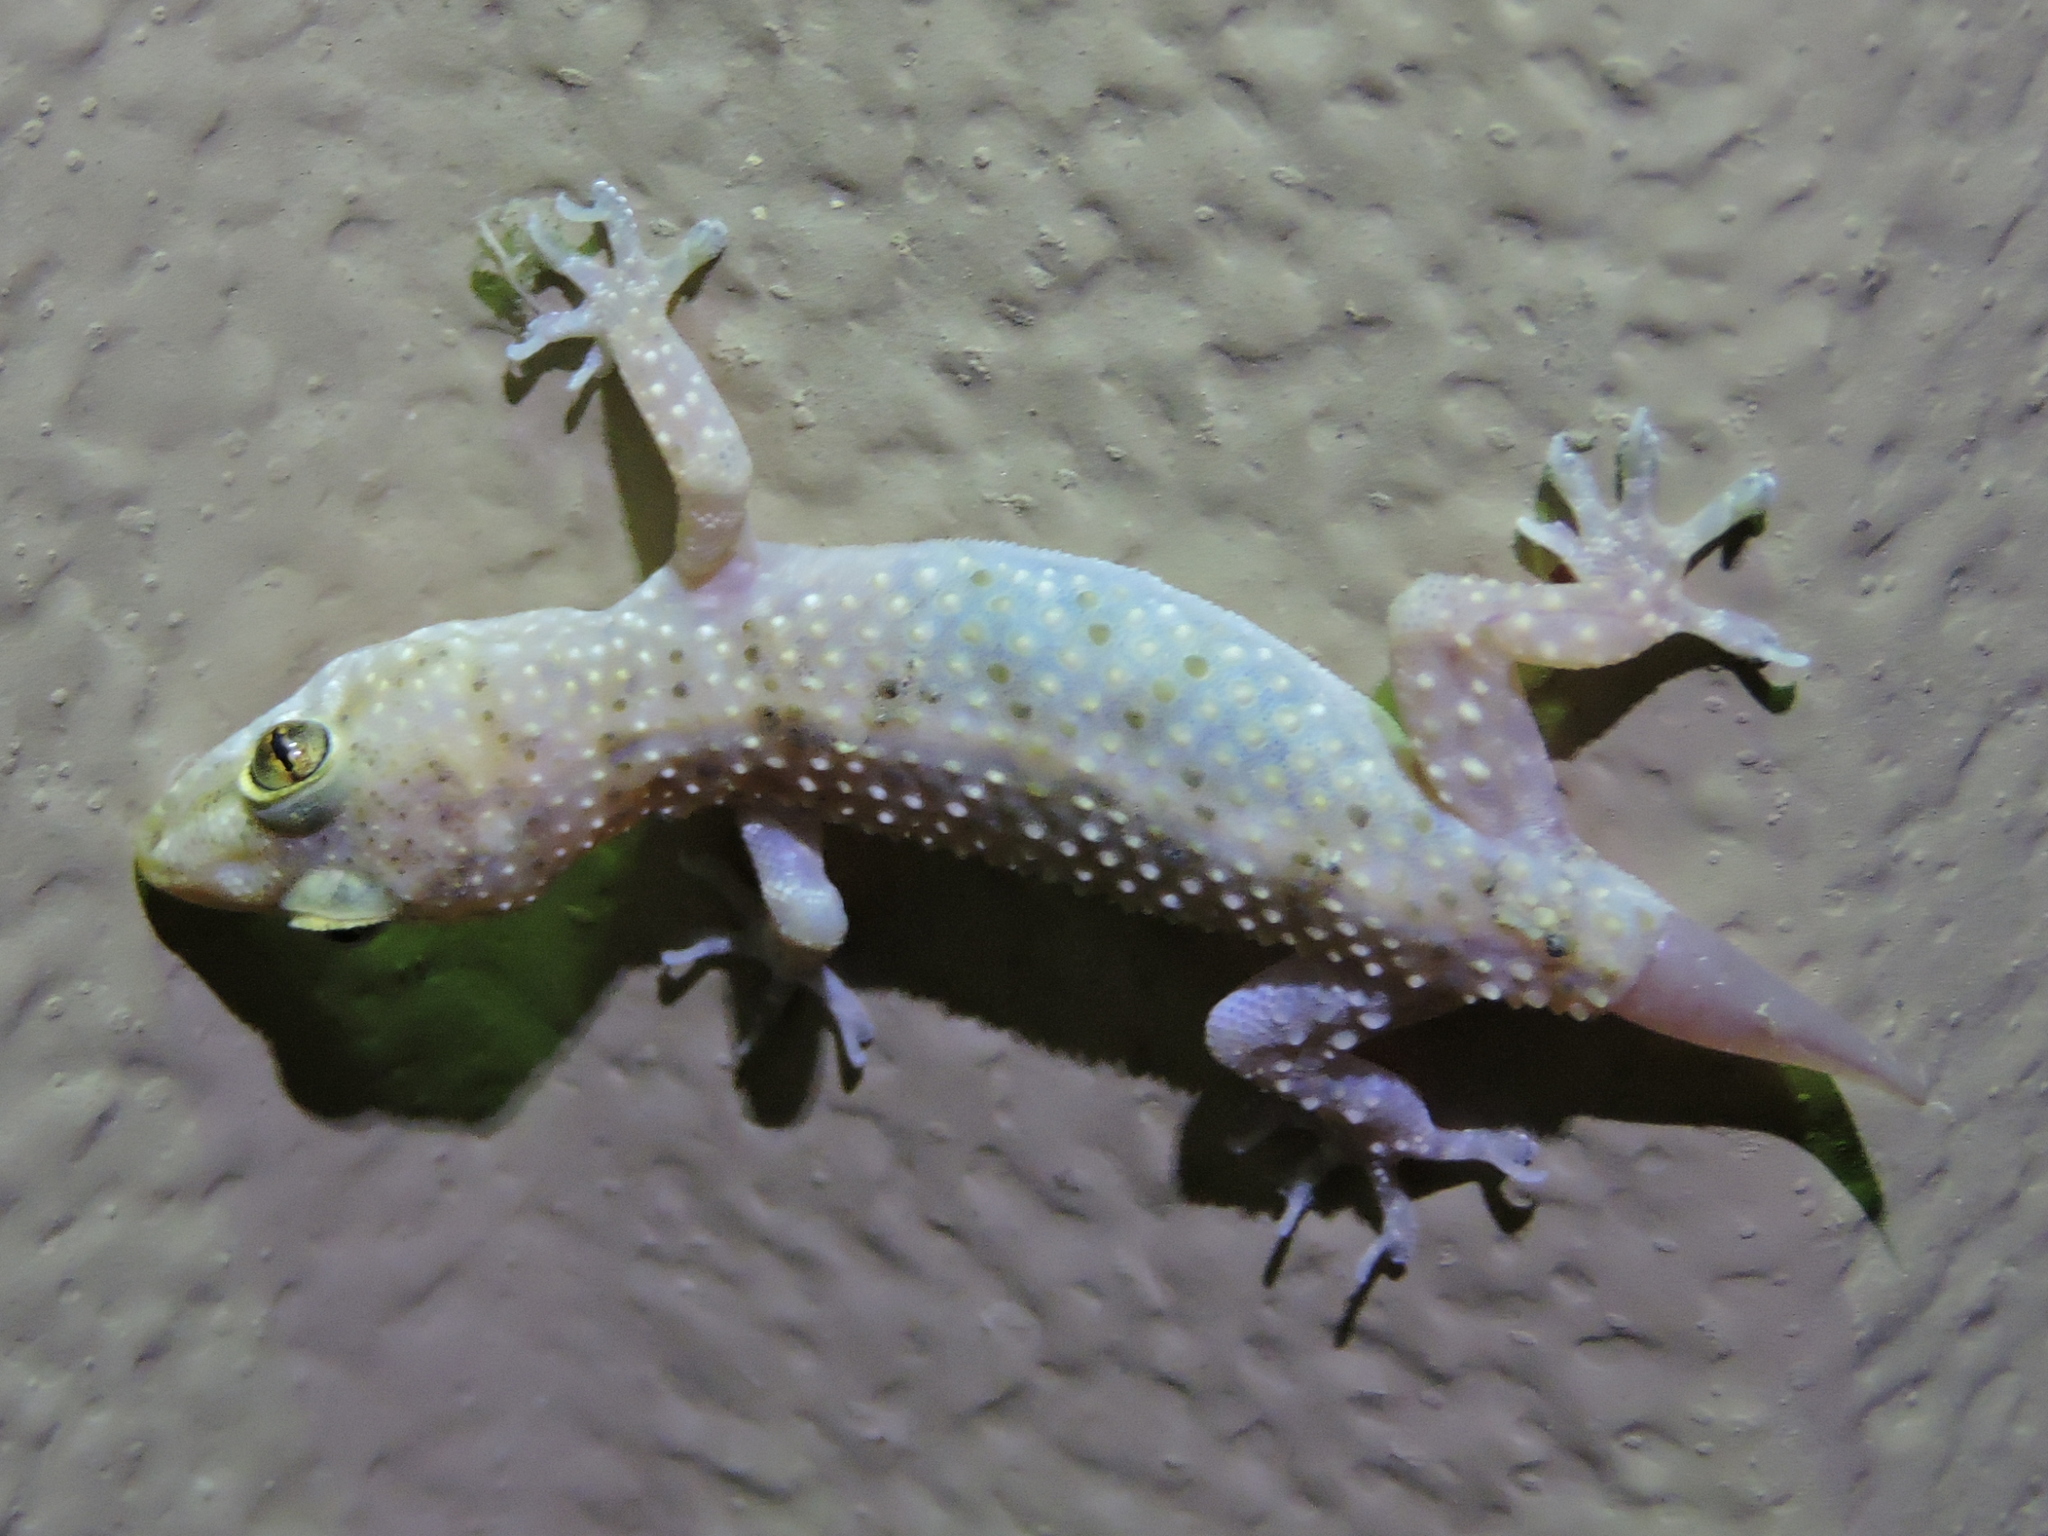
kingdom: Animalia
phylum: Chordata
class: Squamata
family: Gekkonidae
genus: Hemidactylus
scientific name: Hemidactylus turcicus
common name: Turkish gecko
